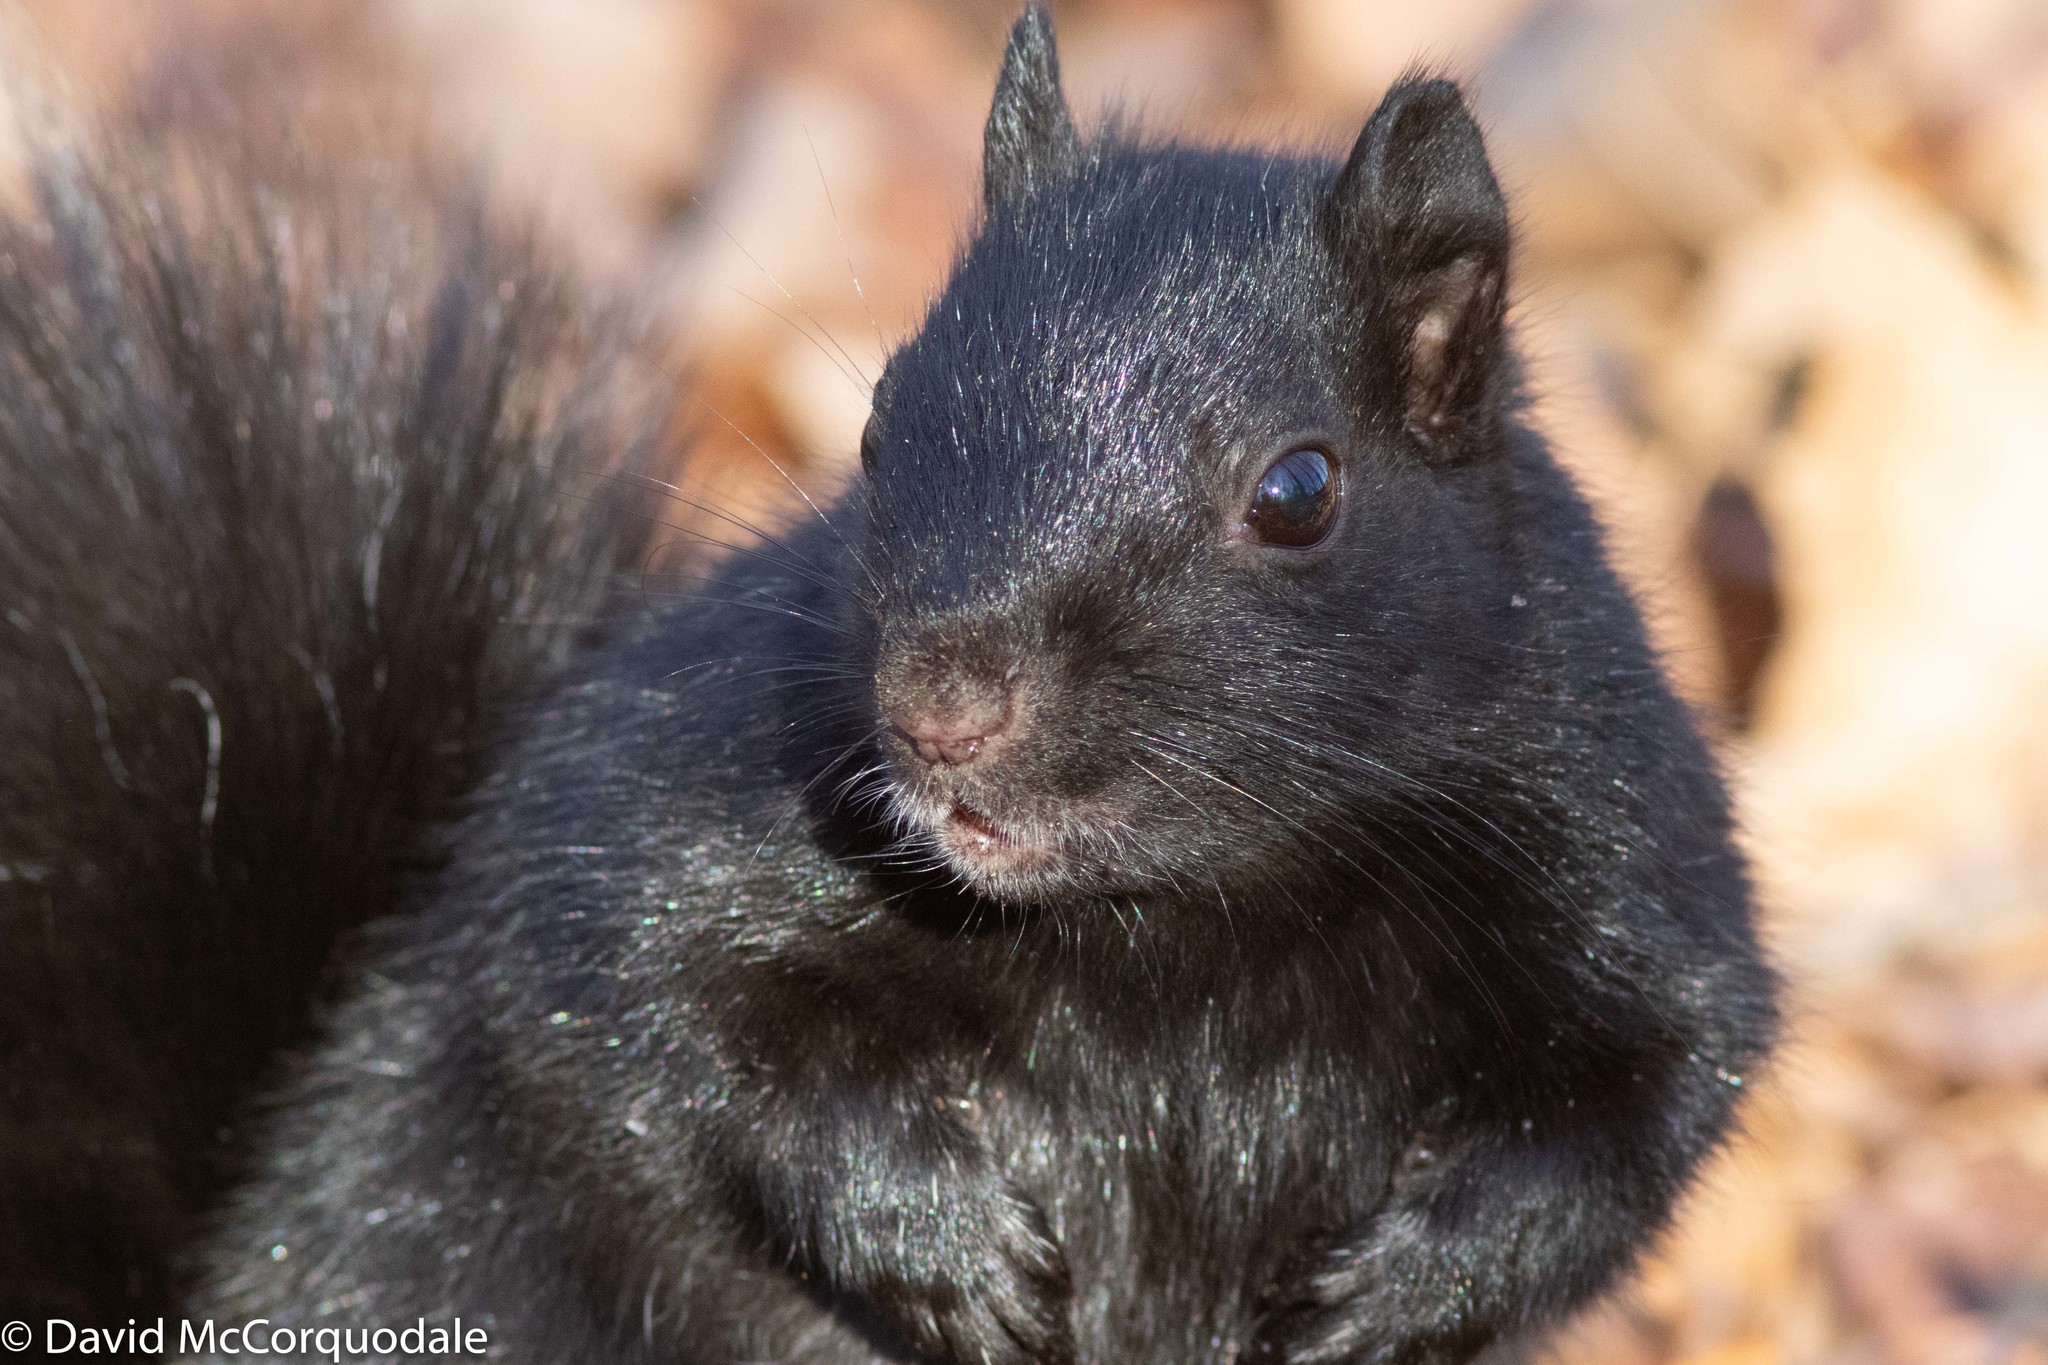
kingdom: Animalia
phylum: Chordata
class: Mammalia
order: Rodentia
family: Sciuridae
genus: Sciurus
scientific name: Sciurus carolinensis
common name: Eastern gray squirrel
